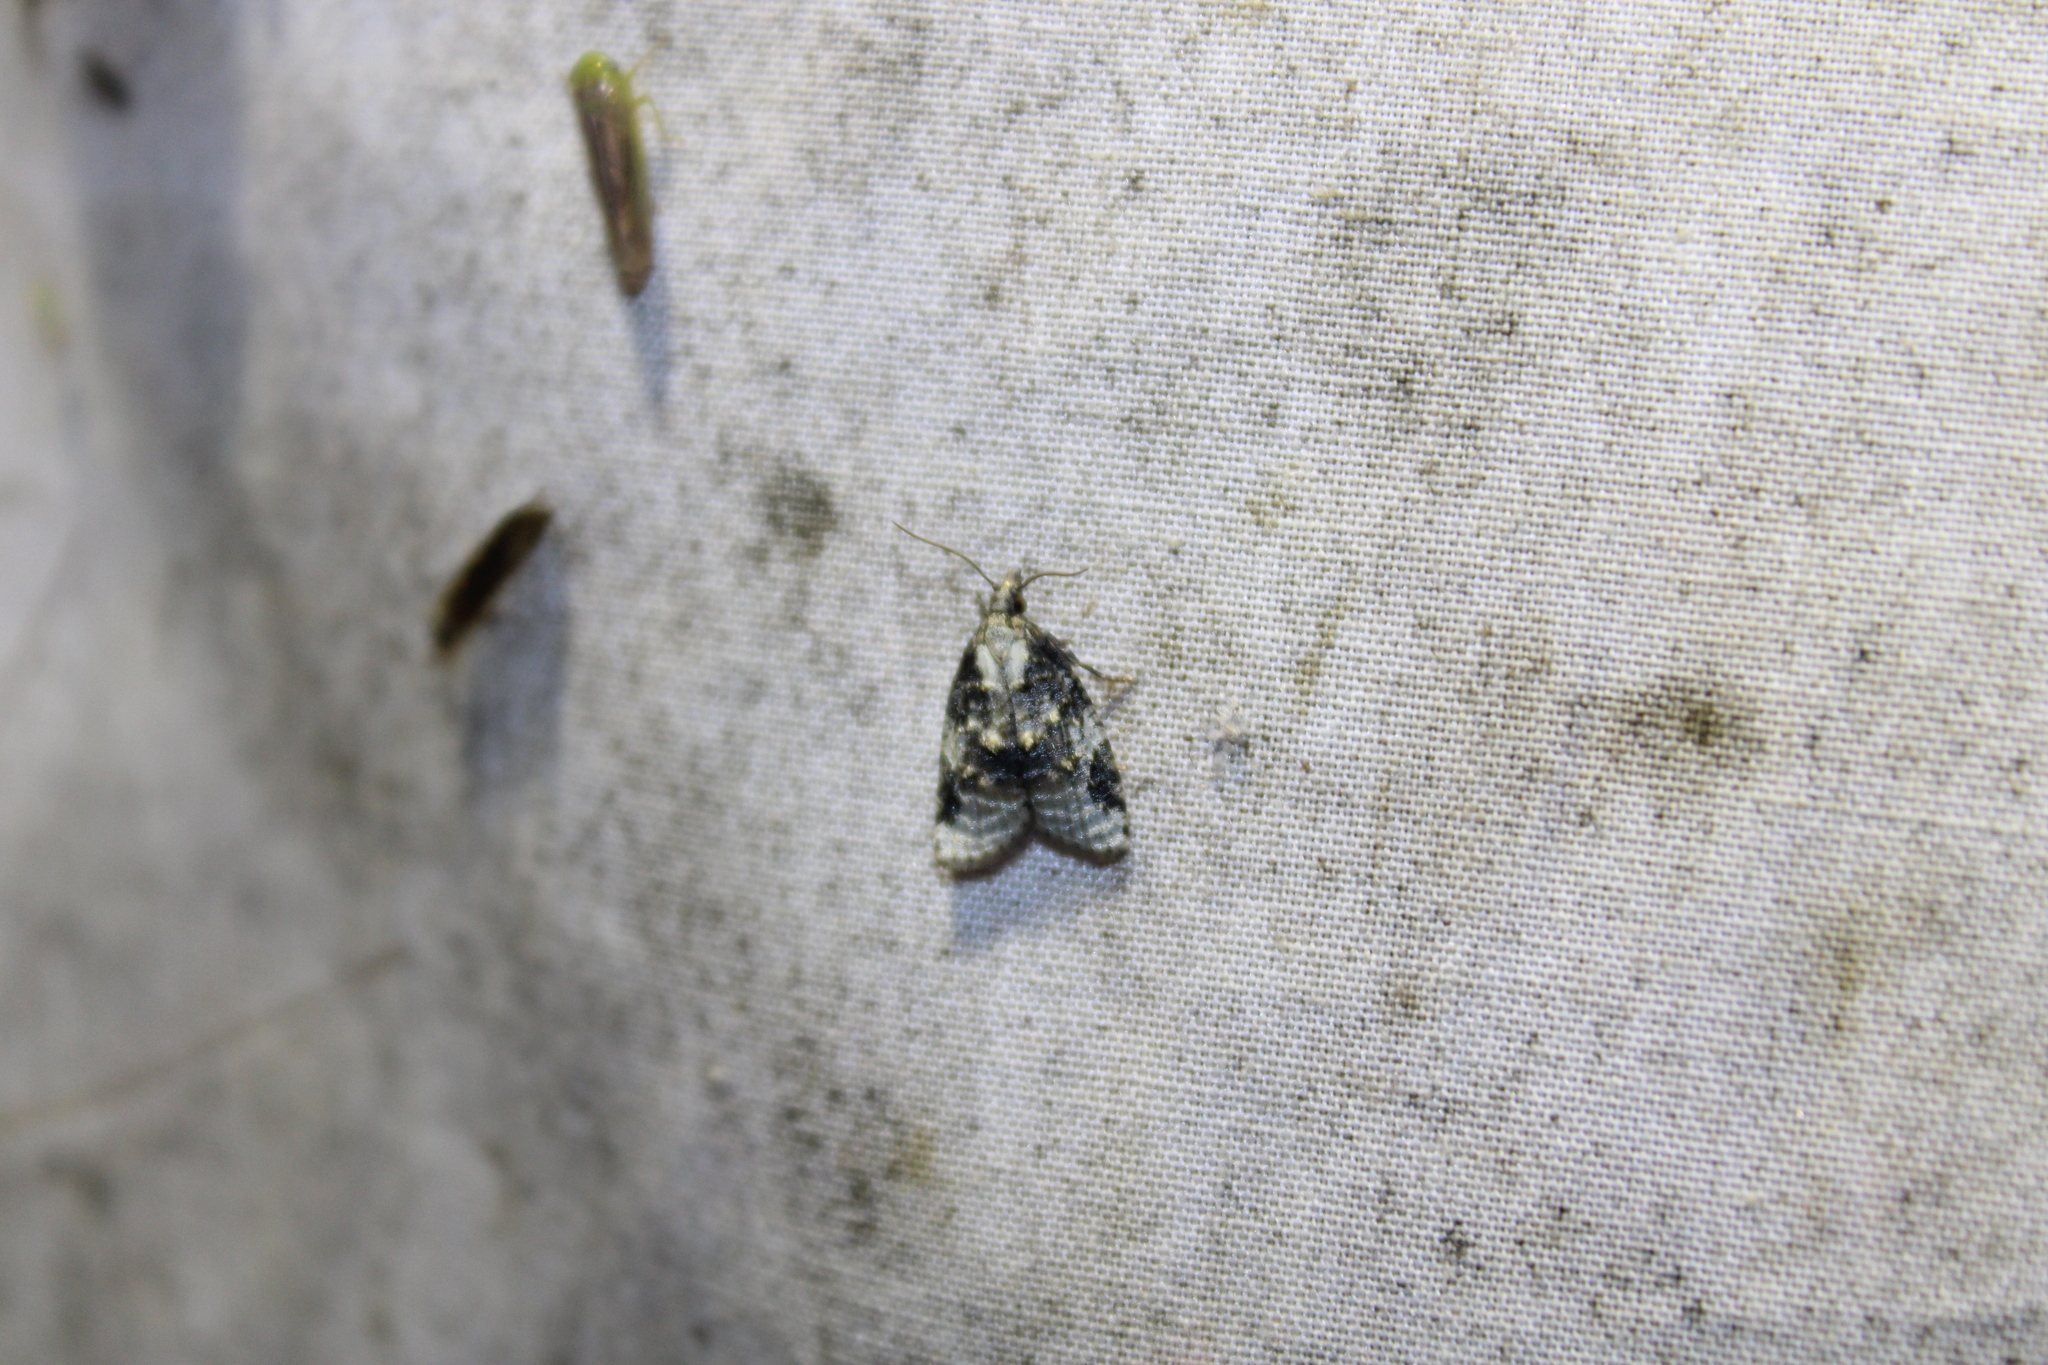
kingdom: Animalia
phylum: Arthropoda
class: Insecta
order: Lepidoptera
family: Tortricidae
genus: Platynota
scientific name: Platynota exasperatana
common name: Exasperating platynota moth
